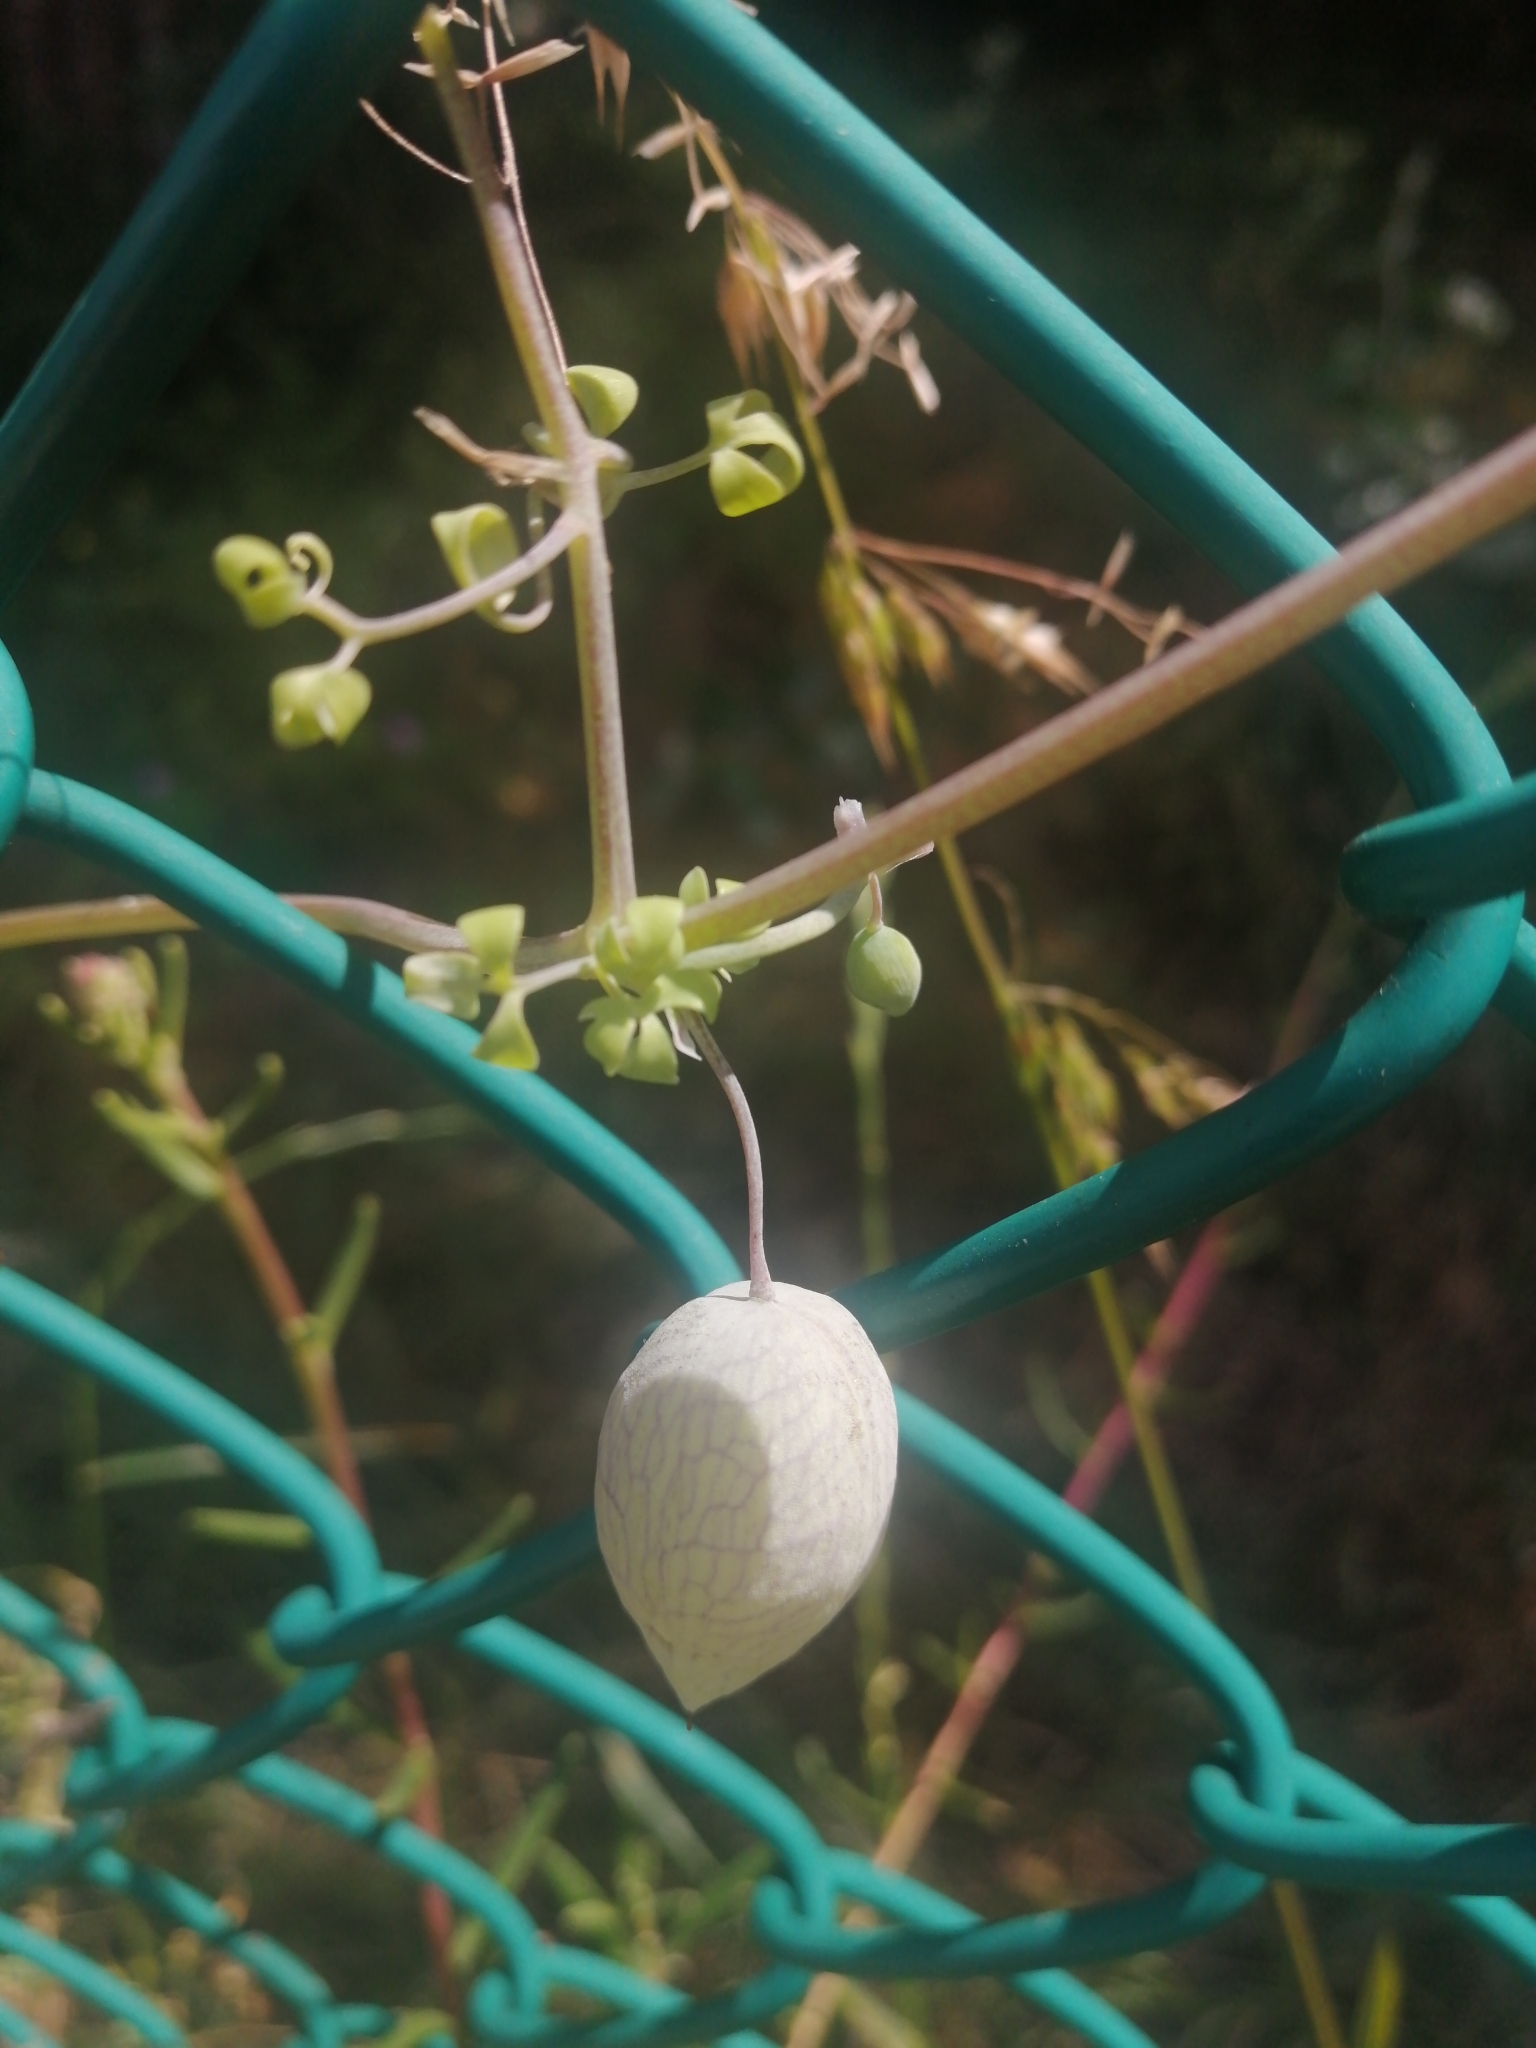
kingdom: Plantae
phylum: Tracheophyta
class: Magnoliopsida
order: Ranunculales
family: Papaveraceae
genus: Cysticapnos
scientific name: Cysticapnos vesicaria
